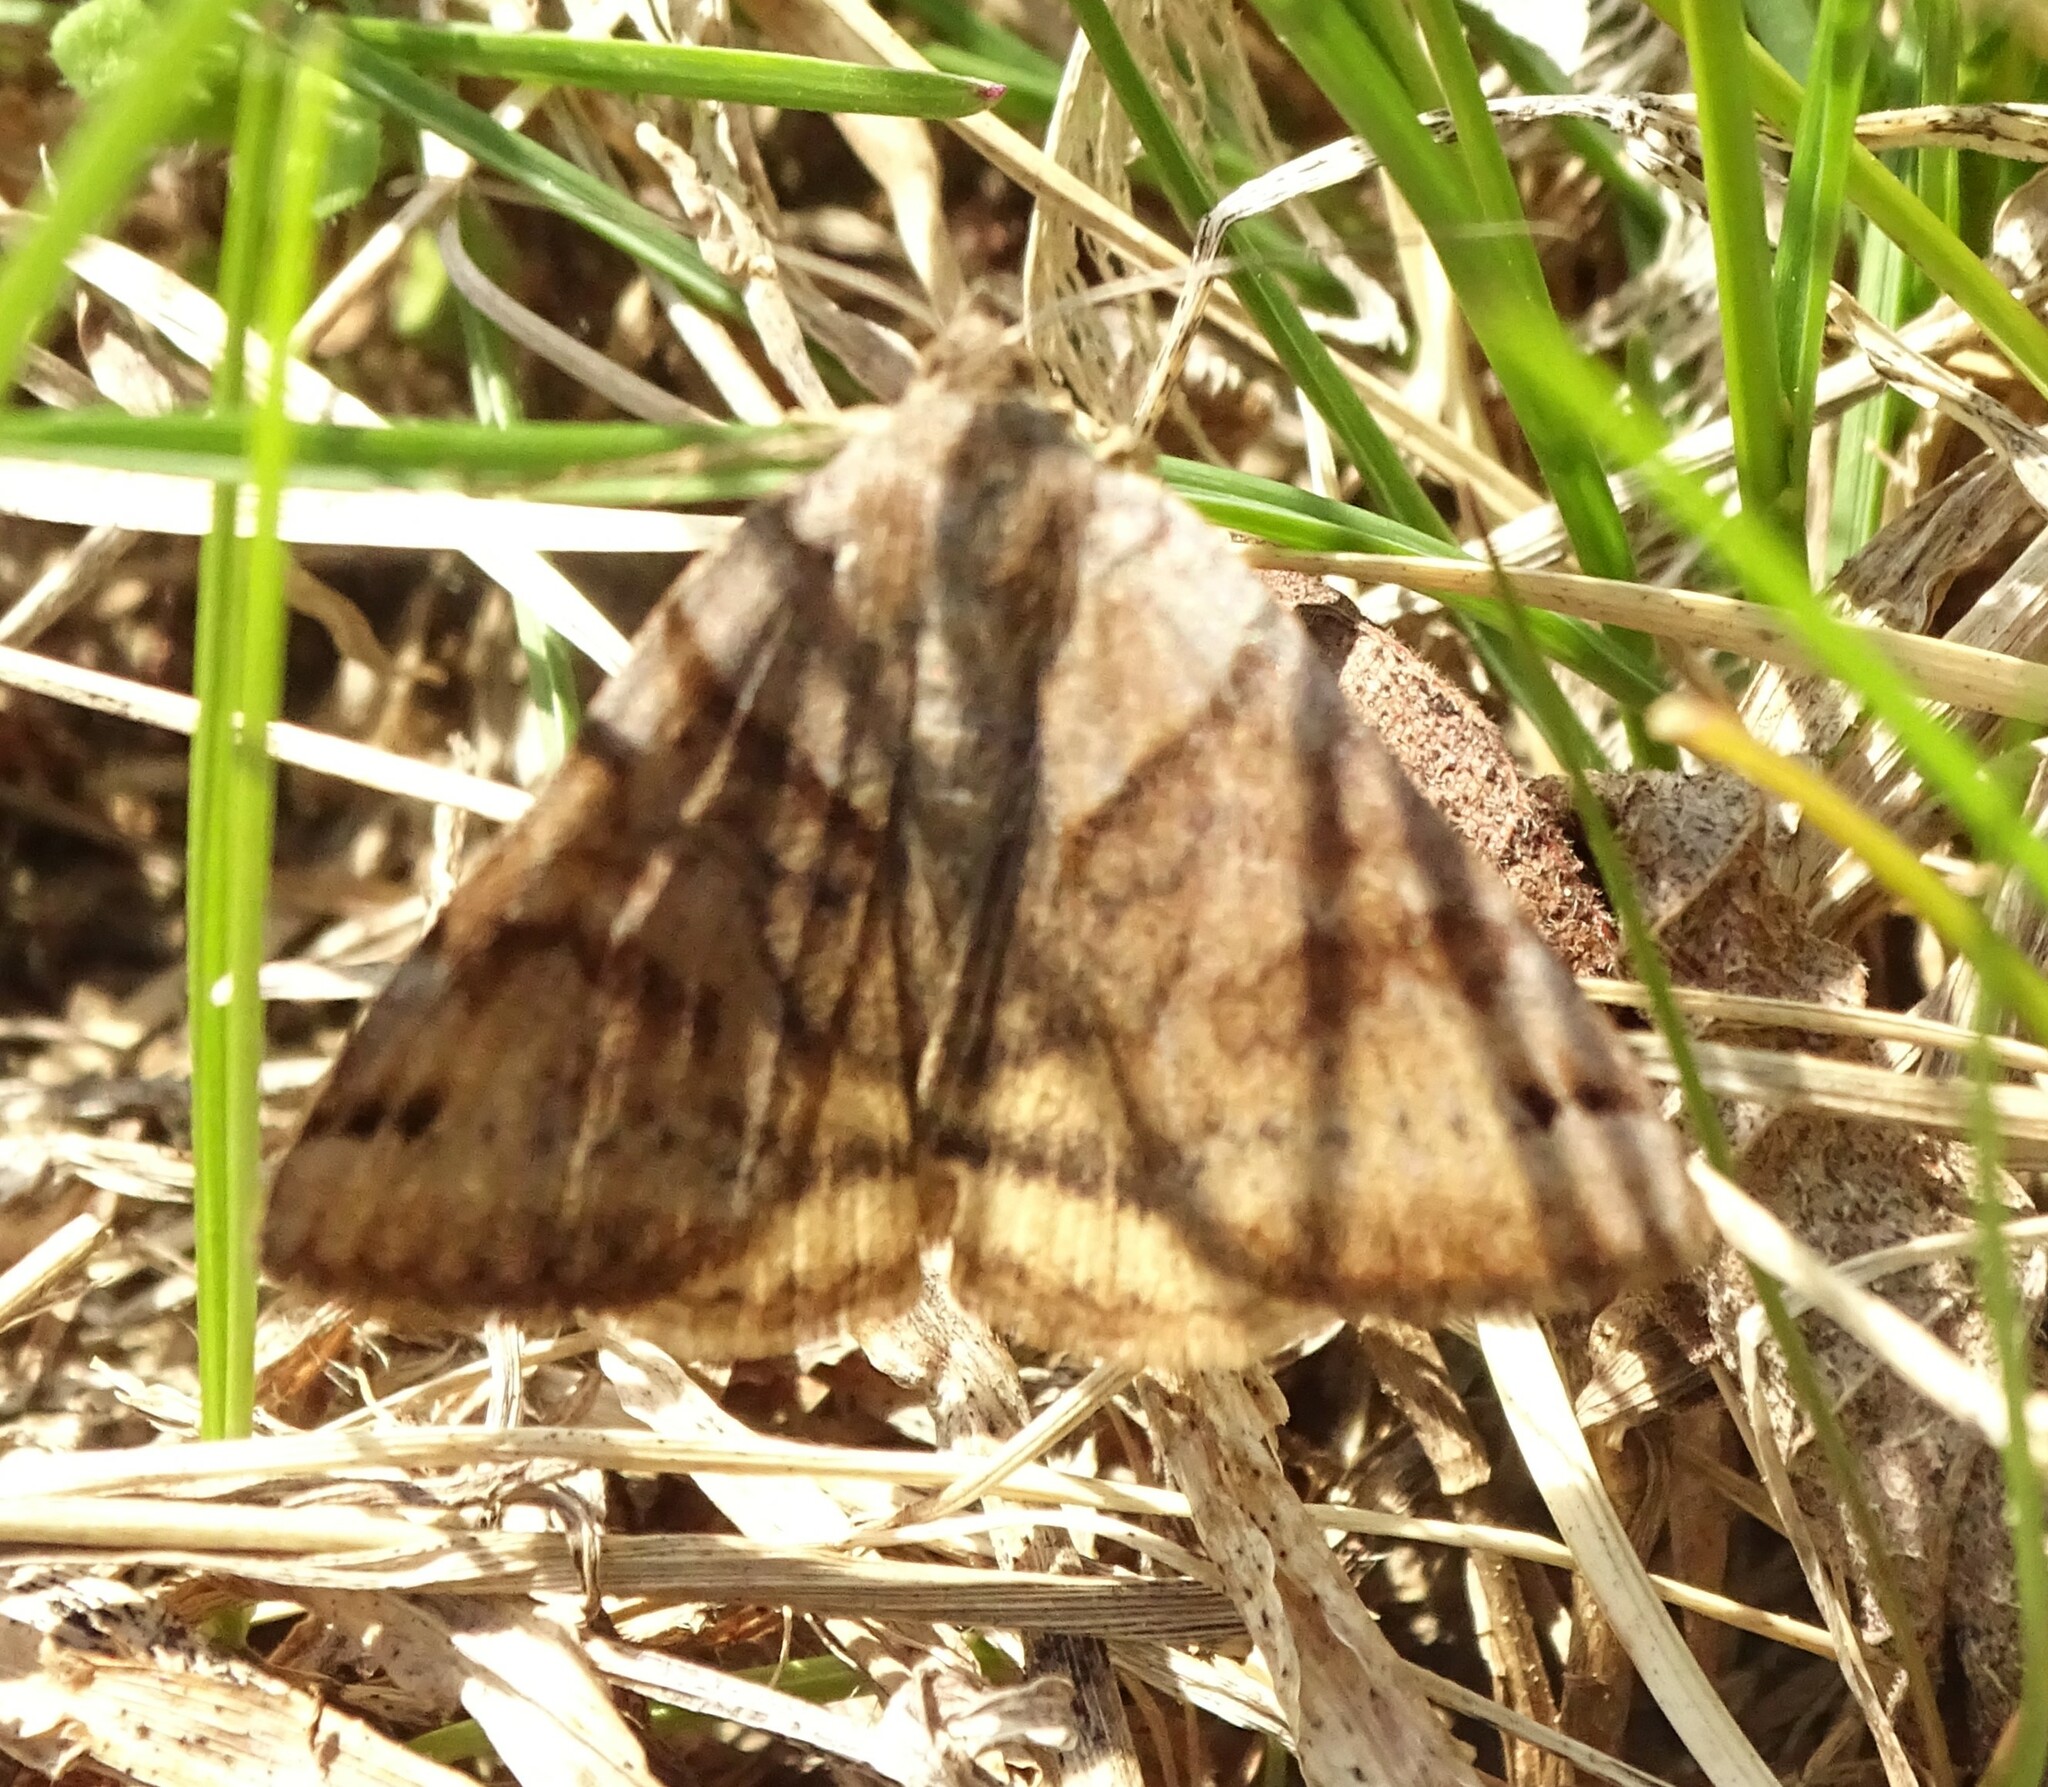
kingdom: Animalia
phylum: Arthropoda
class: Insecta
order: Lepidoptera
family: Erebidae
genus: Caenurgina
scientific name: Caenurgina crassiuscula
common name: Double-barred
